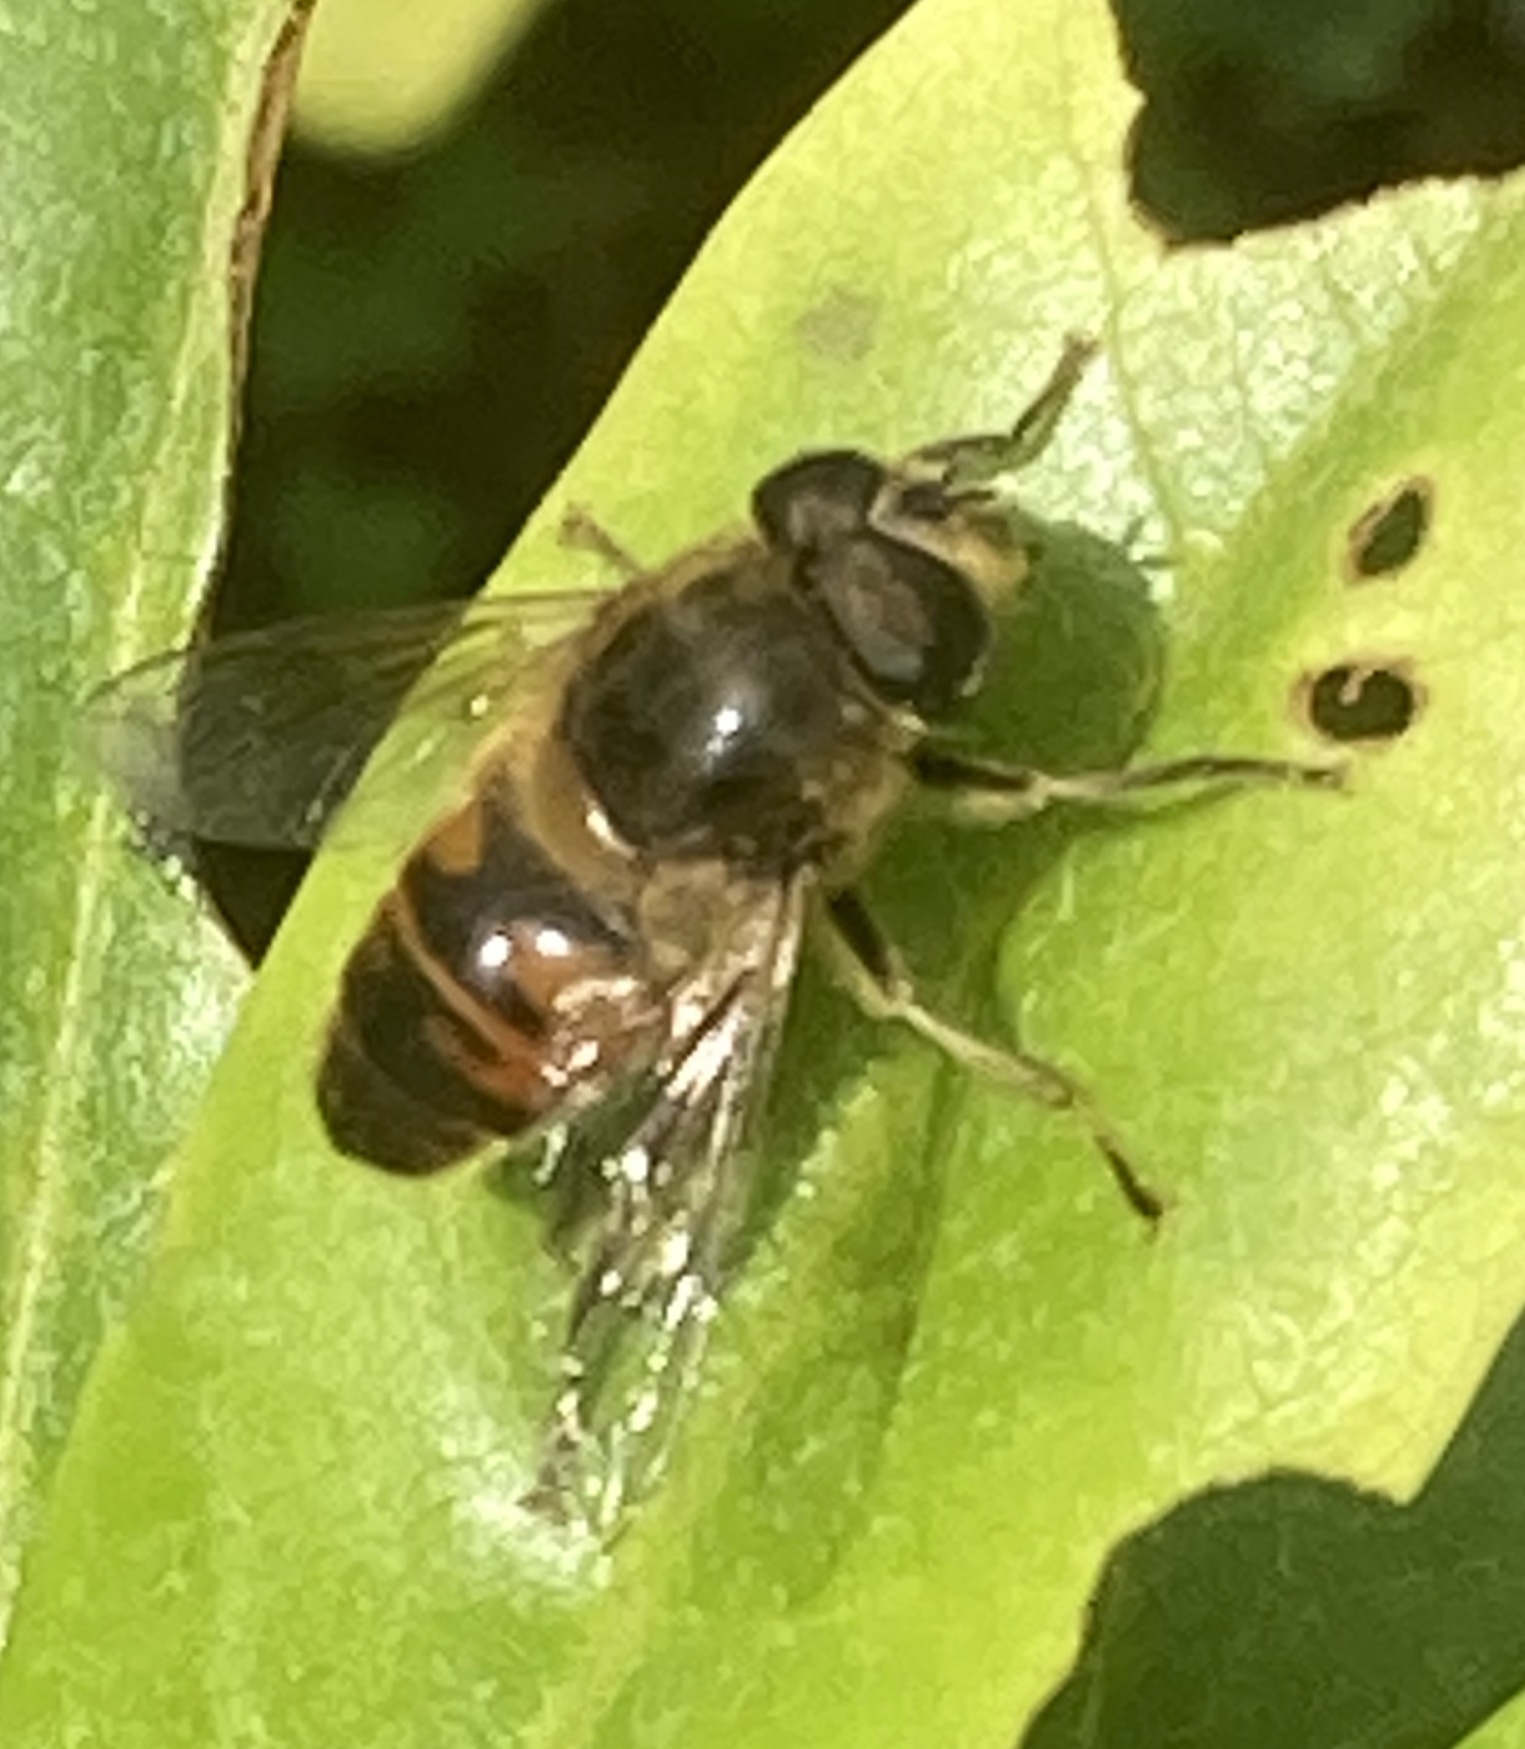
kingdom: Animalia
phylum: Arthropoda
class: Insecta
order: Diptera
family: Syrphidae
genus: Eristalis
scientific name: Eristalis tenax
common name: Drone fly
